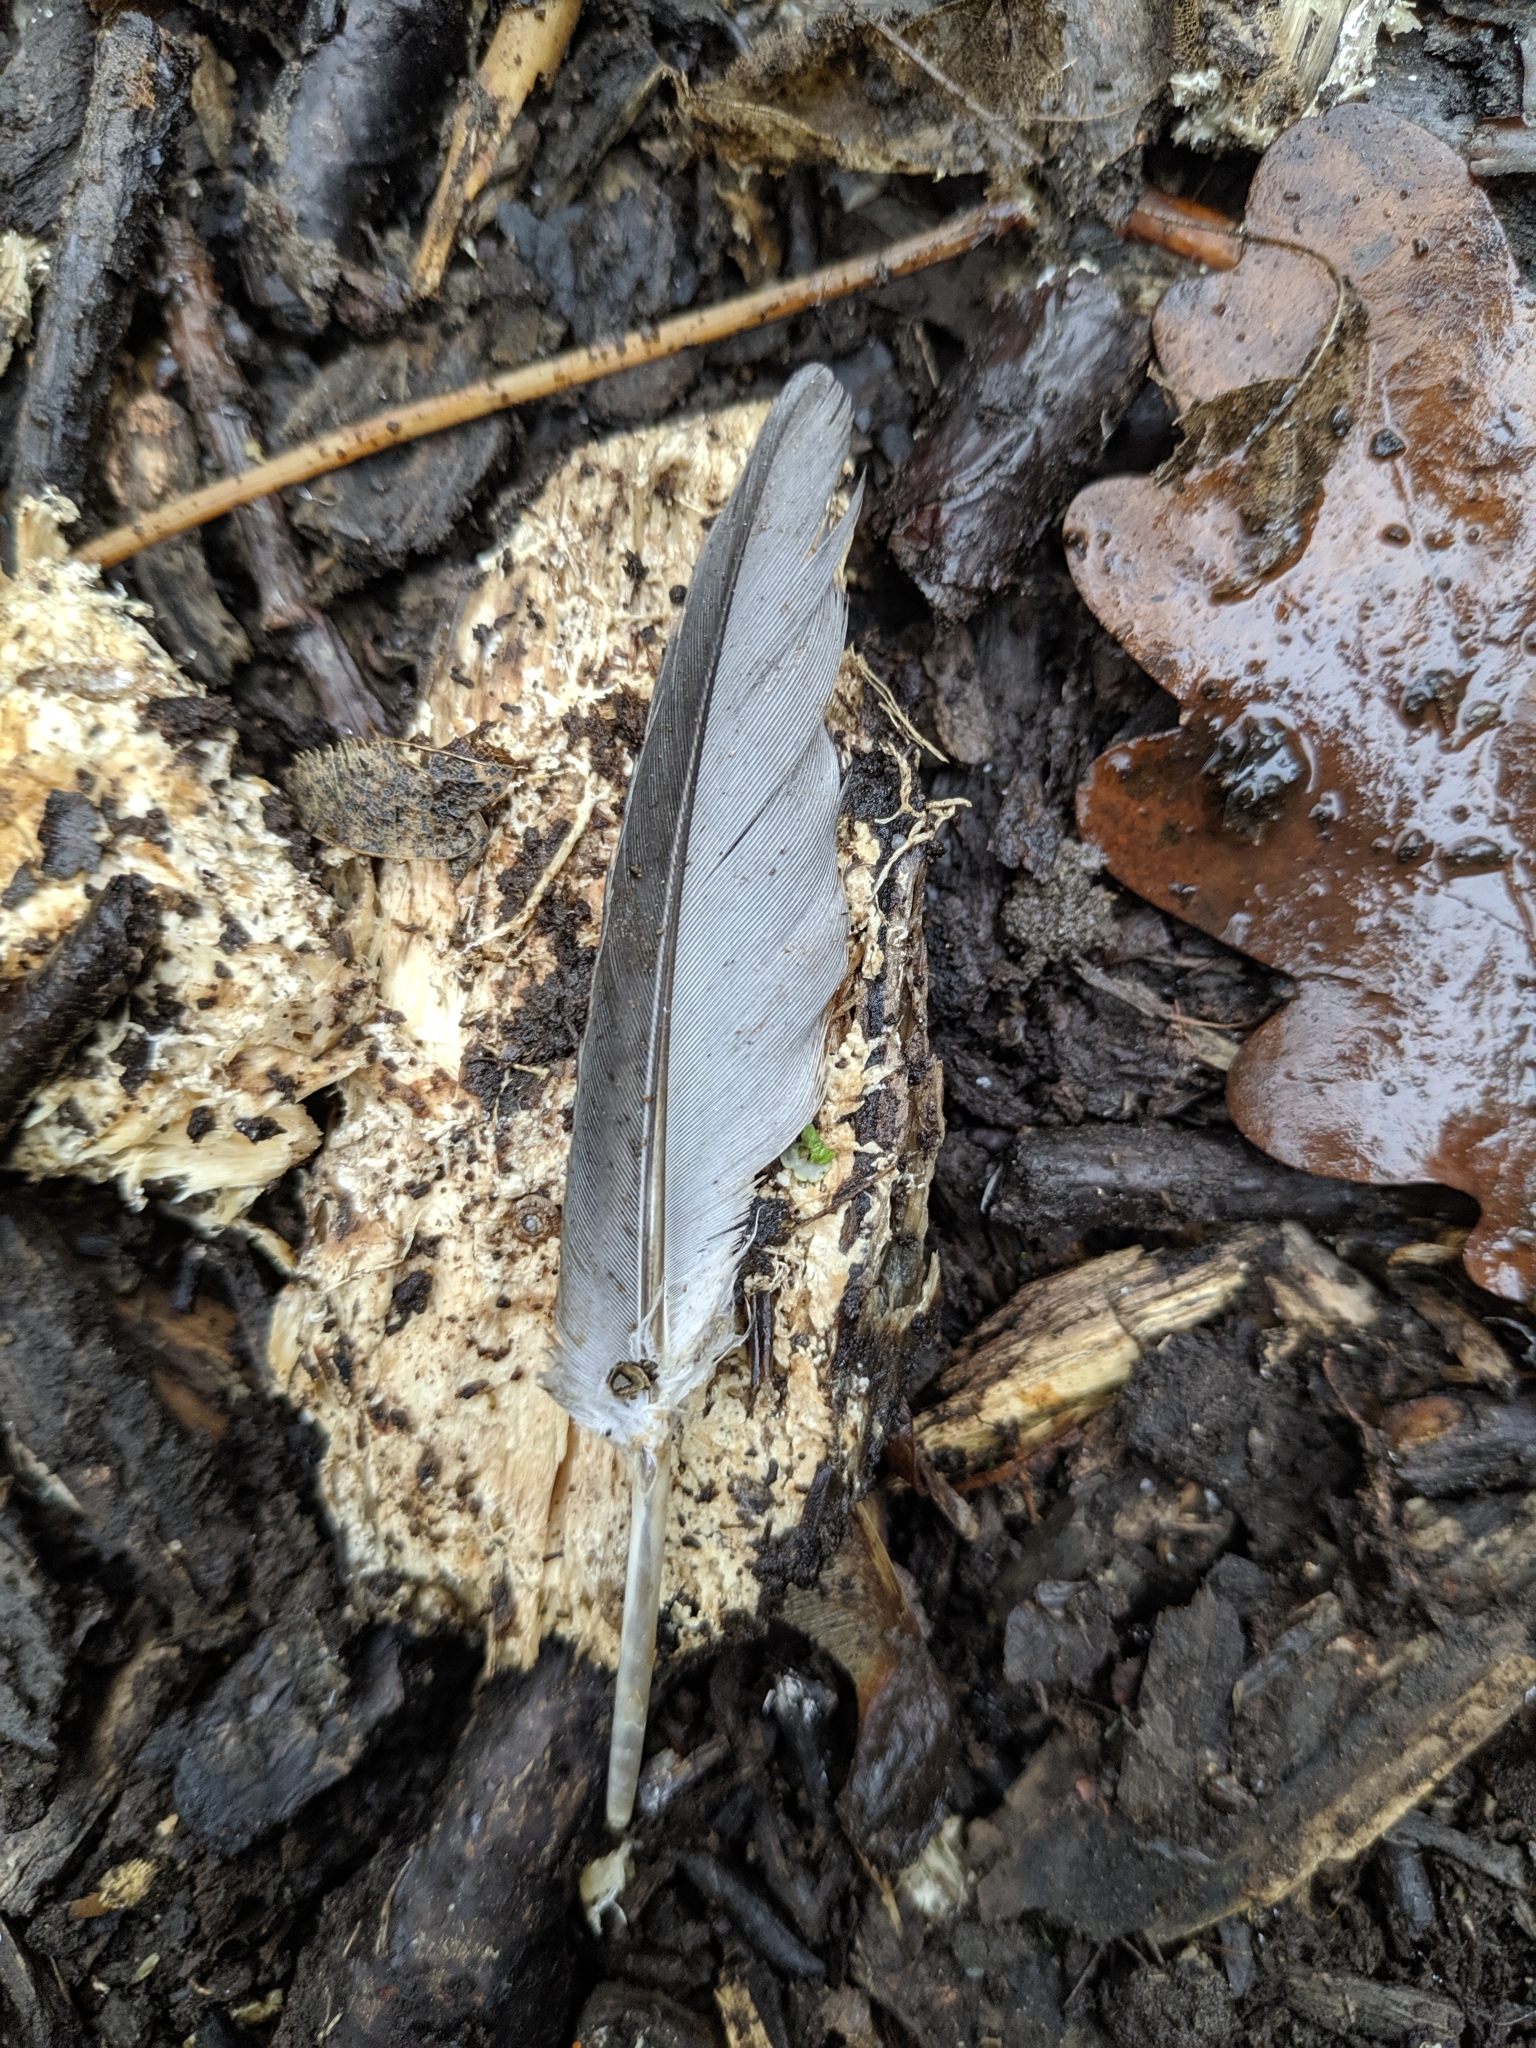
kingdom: Animalia
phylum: Chordata
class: Aves
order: Columbiformes
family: Columbidae
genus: Columba
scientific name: Columba palumbus
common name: Common wood pigeon
